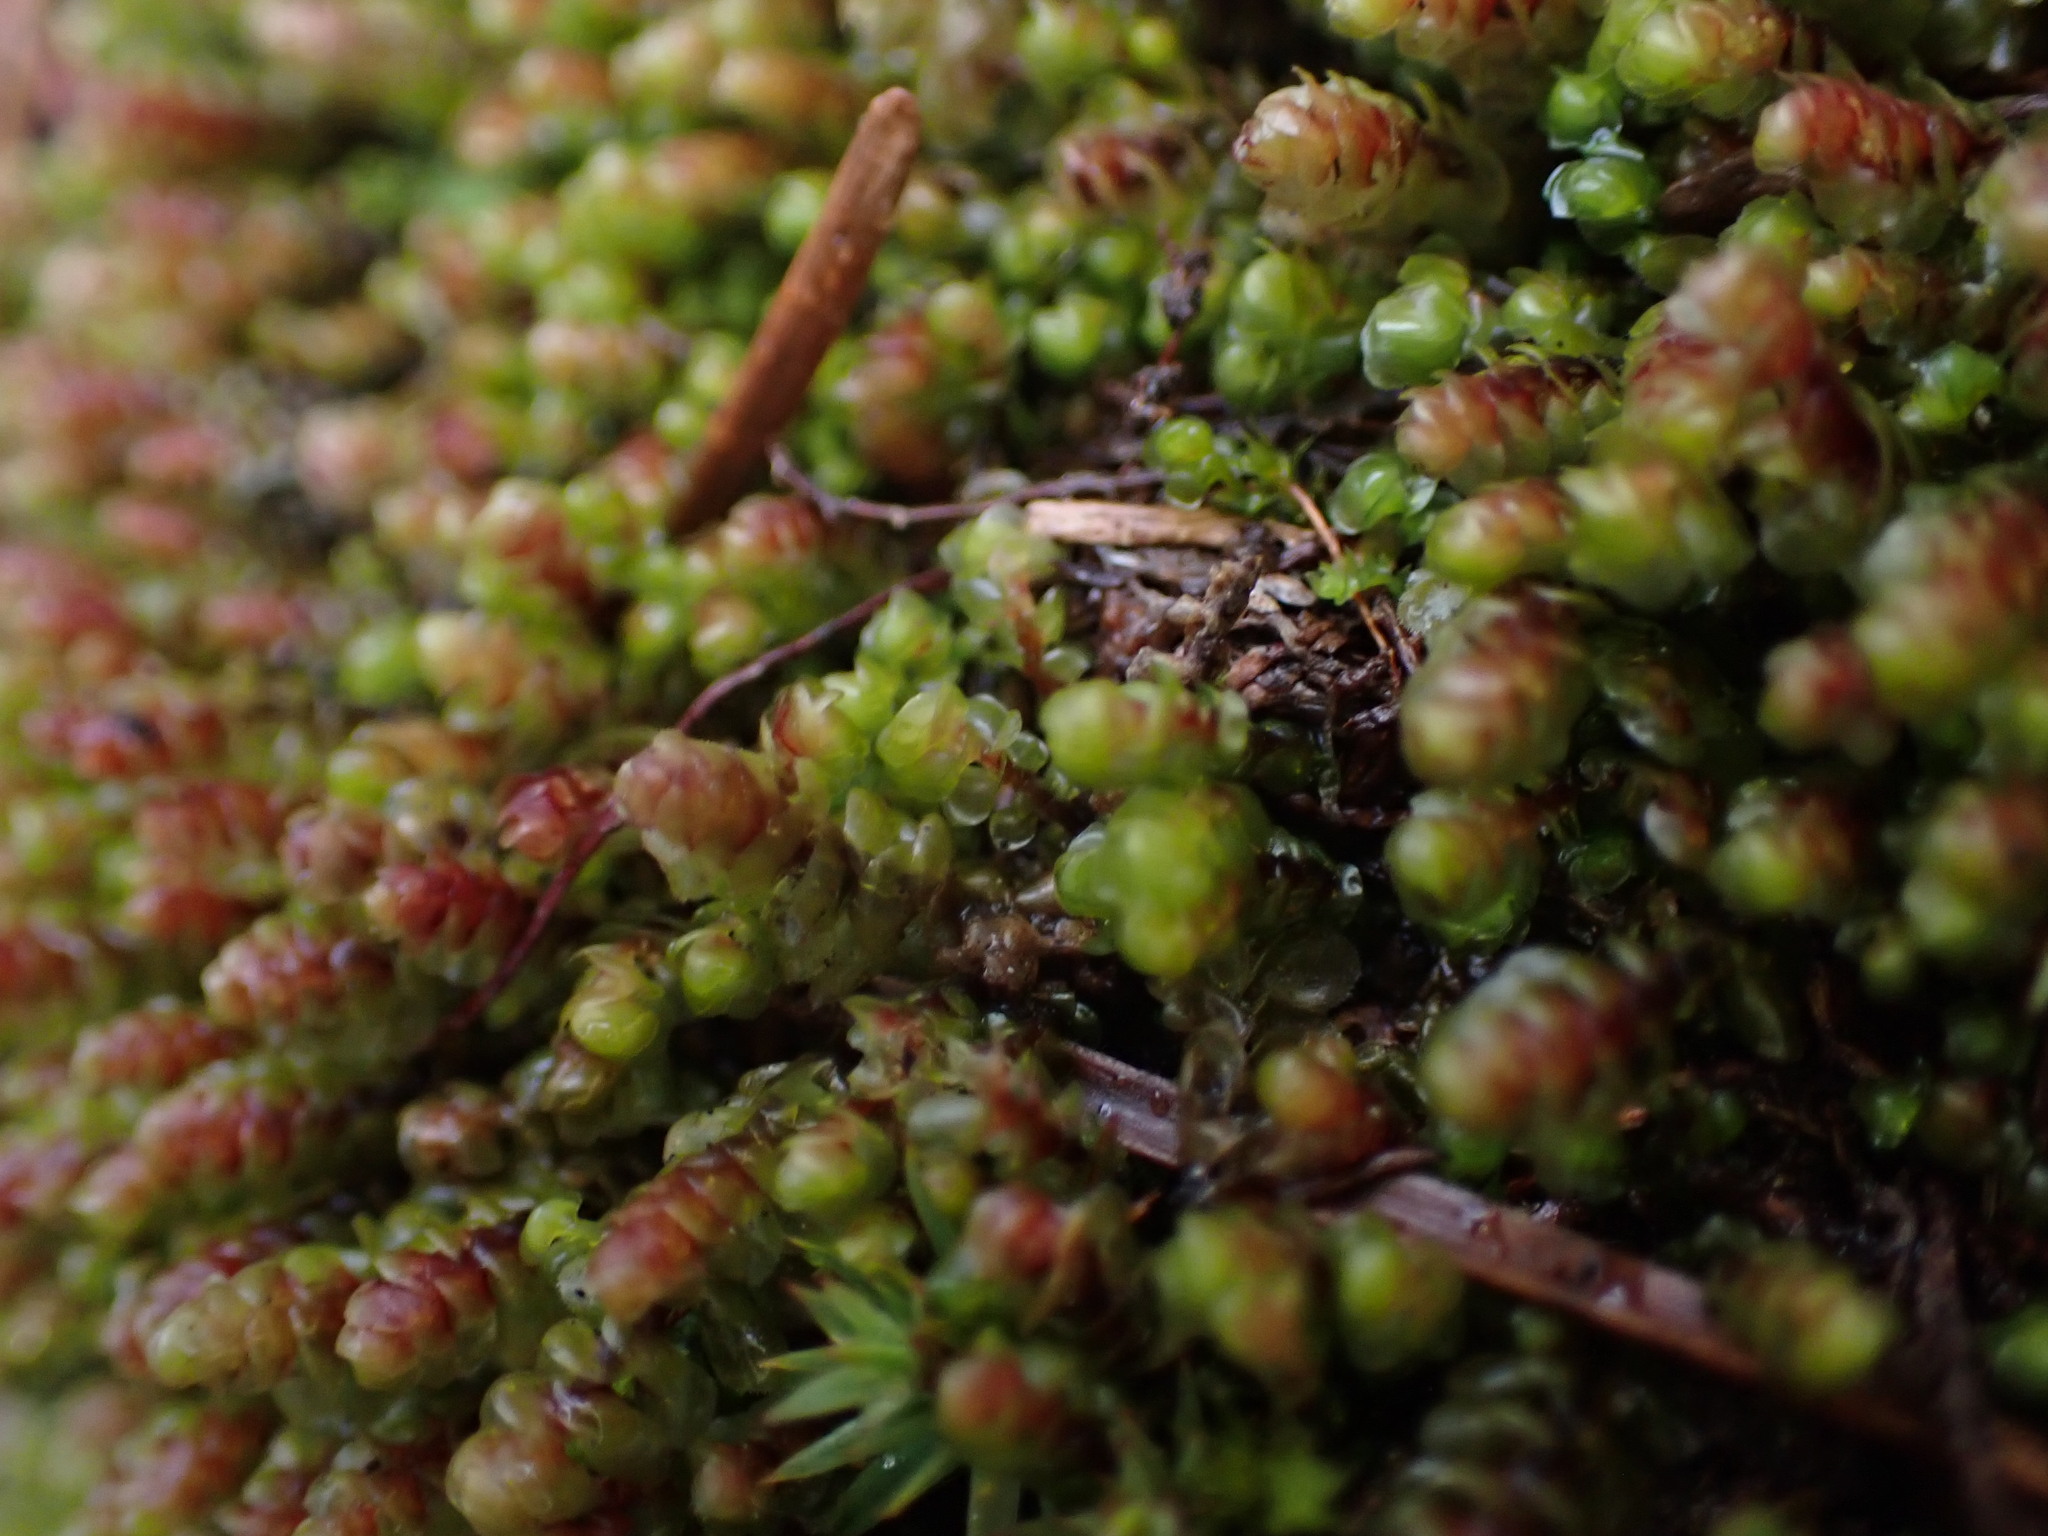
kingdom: Plantae
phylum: Marchantiophyta
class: Jungermanniopsida
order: Jungermanniales
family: Scapaniaceae
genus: Scapania
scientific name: Scapania americana
